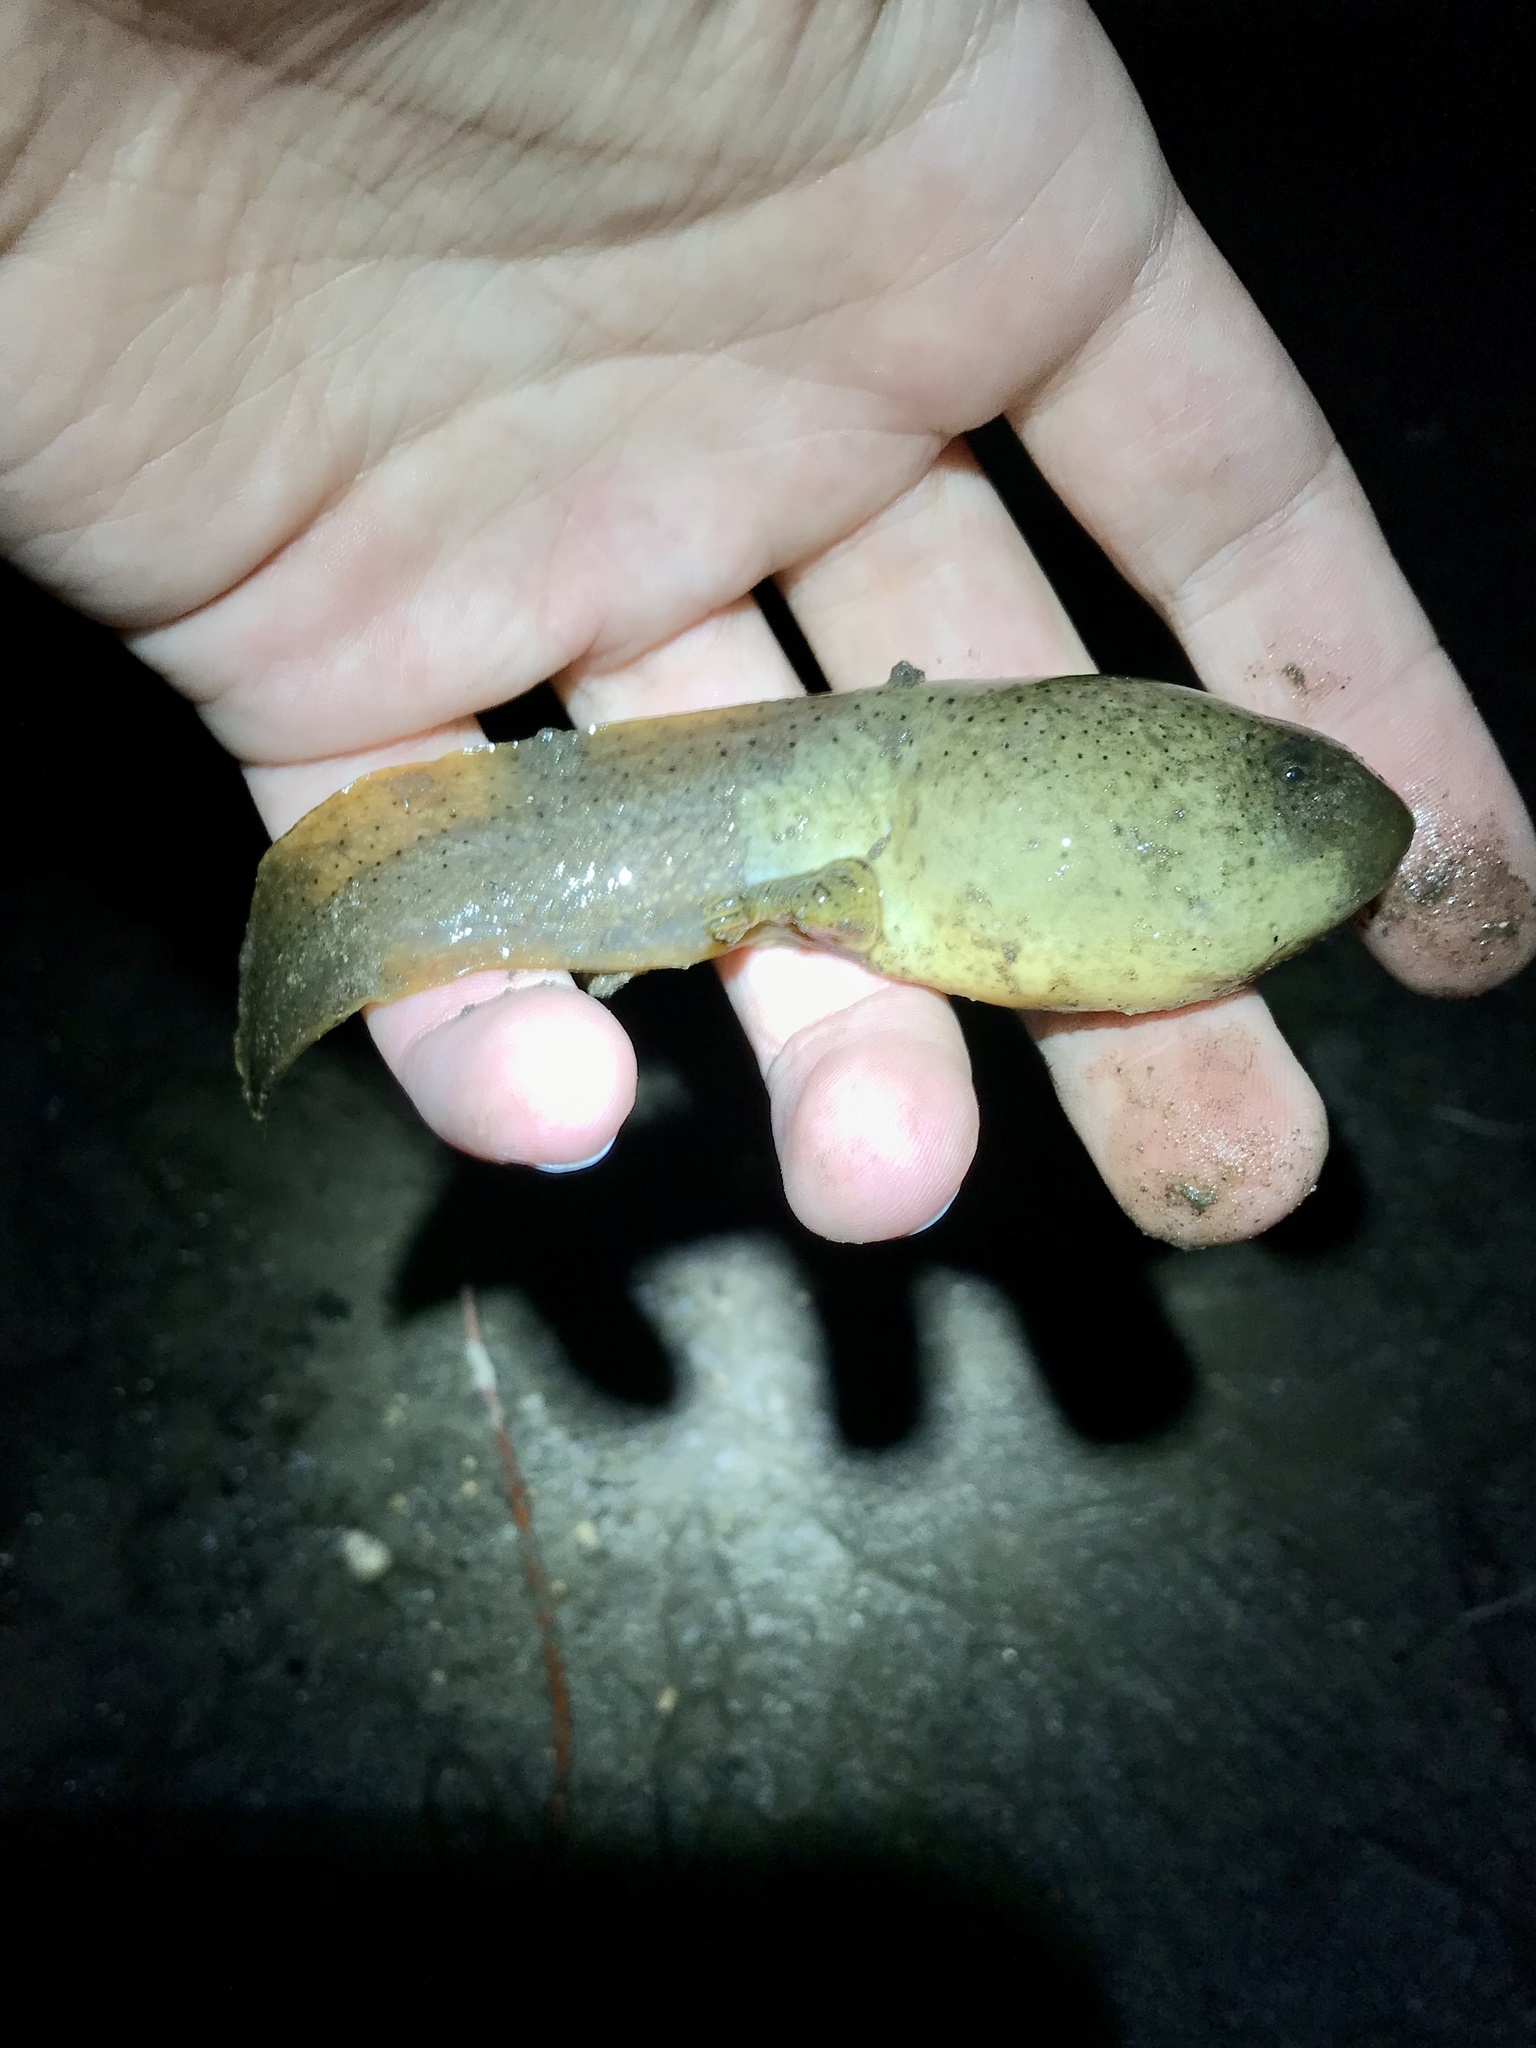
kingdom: Animalia
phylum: Chordata
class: Amphibia
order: Anura
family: Ranidae
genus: Lithobates
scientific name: Lithobates catesbeianus
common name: American bullfrog
